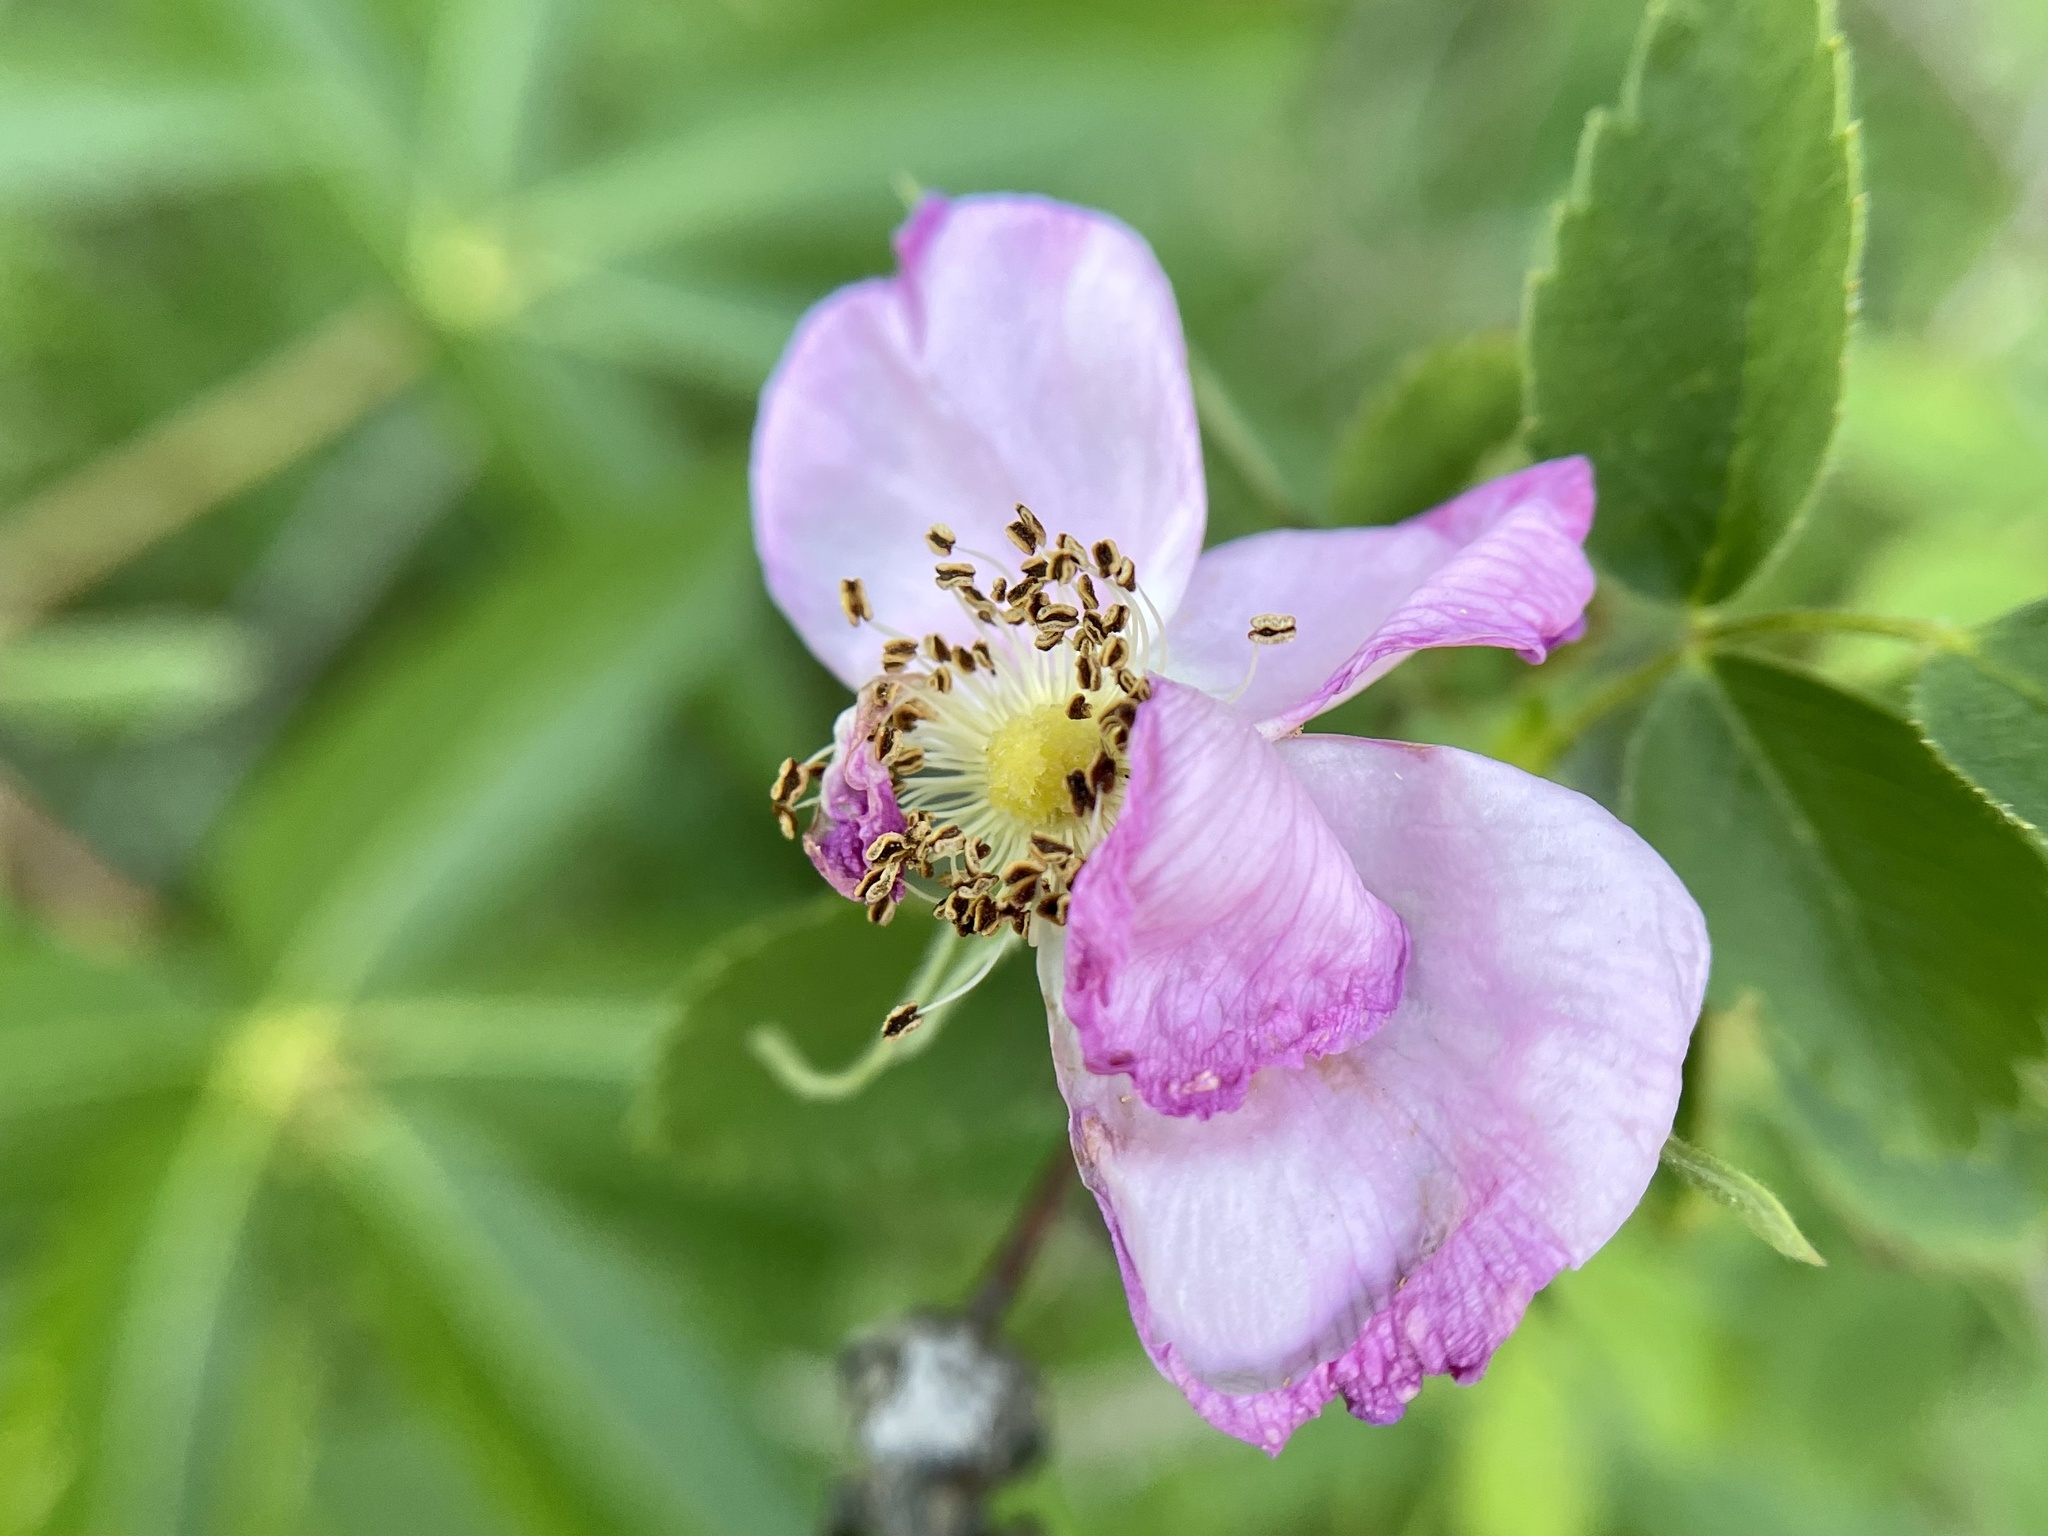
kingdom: Plantae
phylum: Tracheophyta
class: Magnoliopsida
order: Rosales
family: Rosaceae
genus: Rosa
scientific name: Rosa californica
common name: California rose
